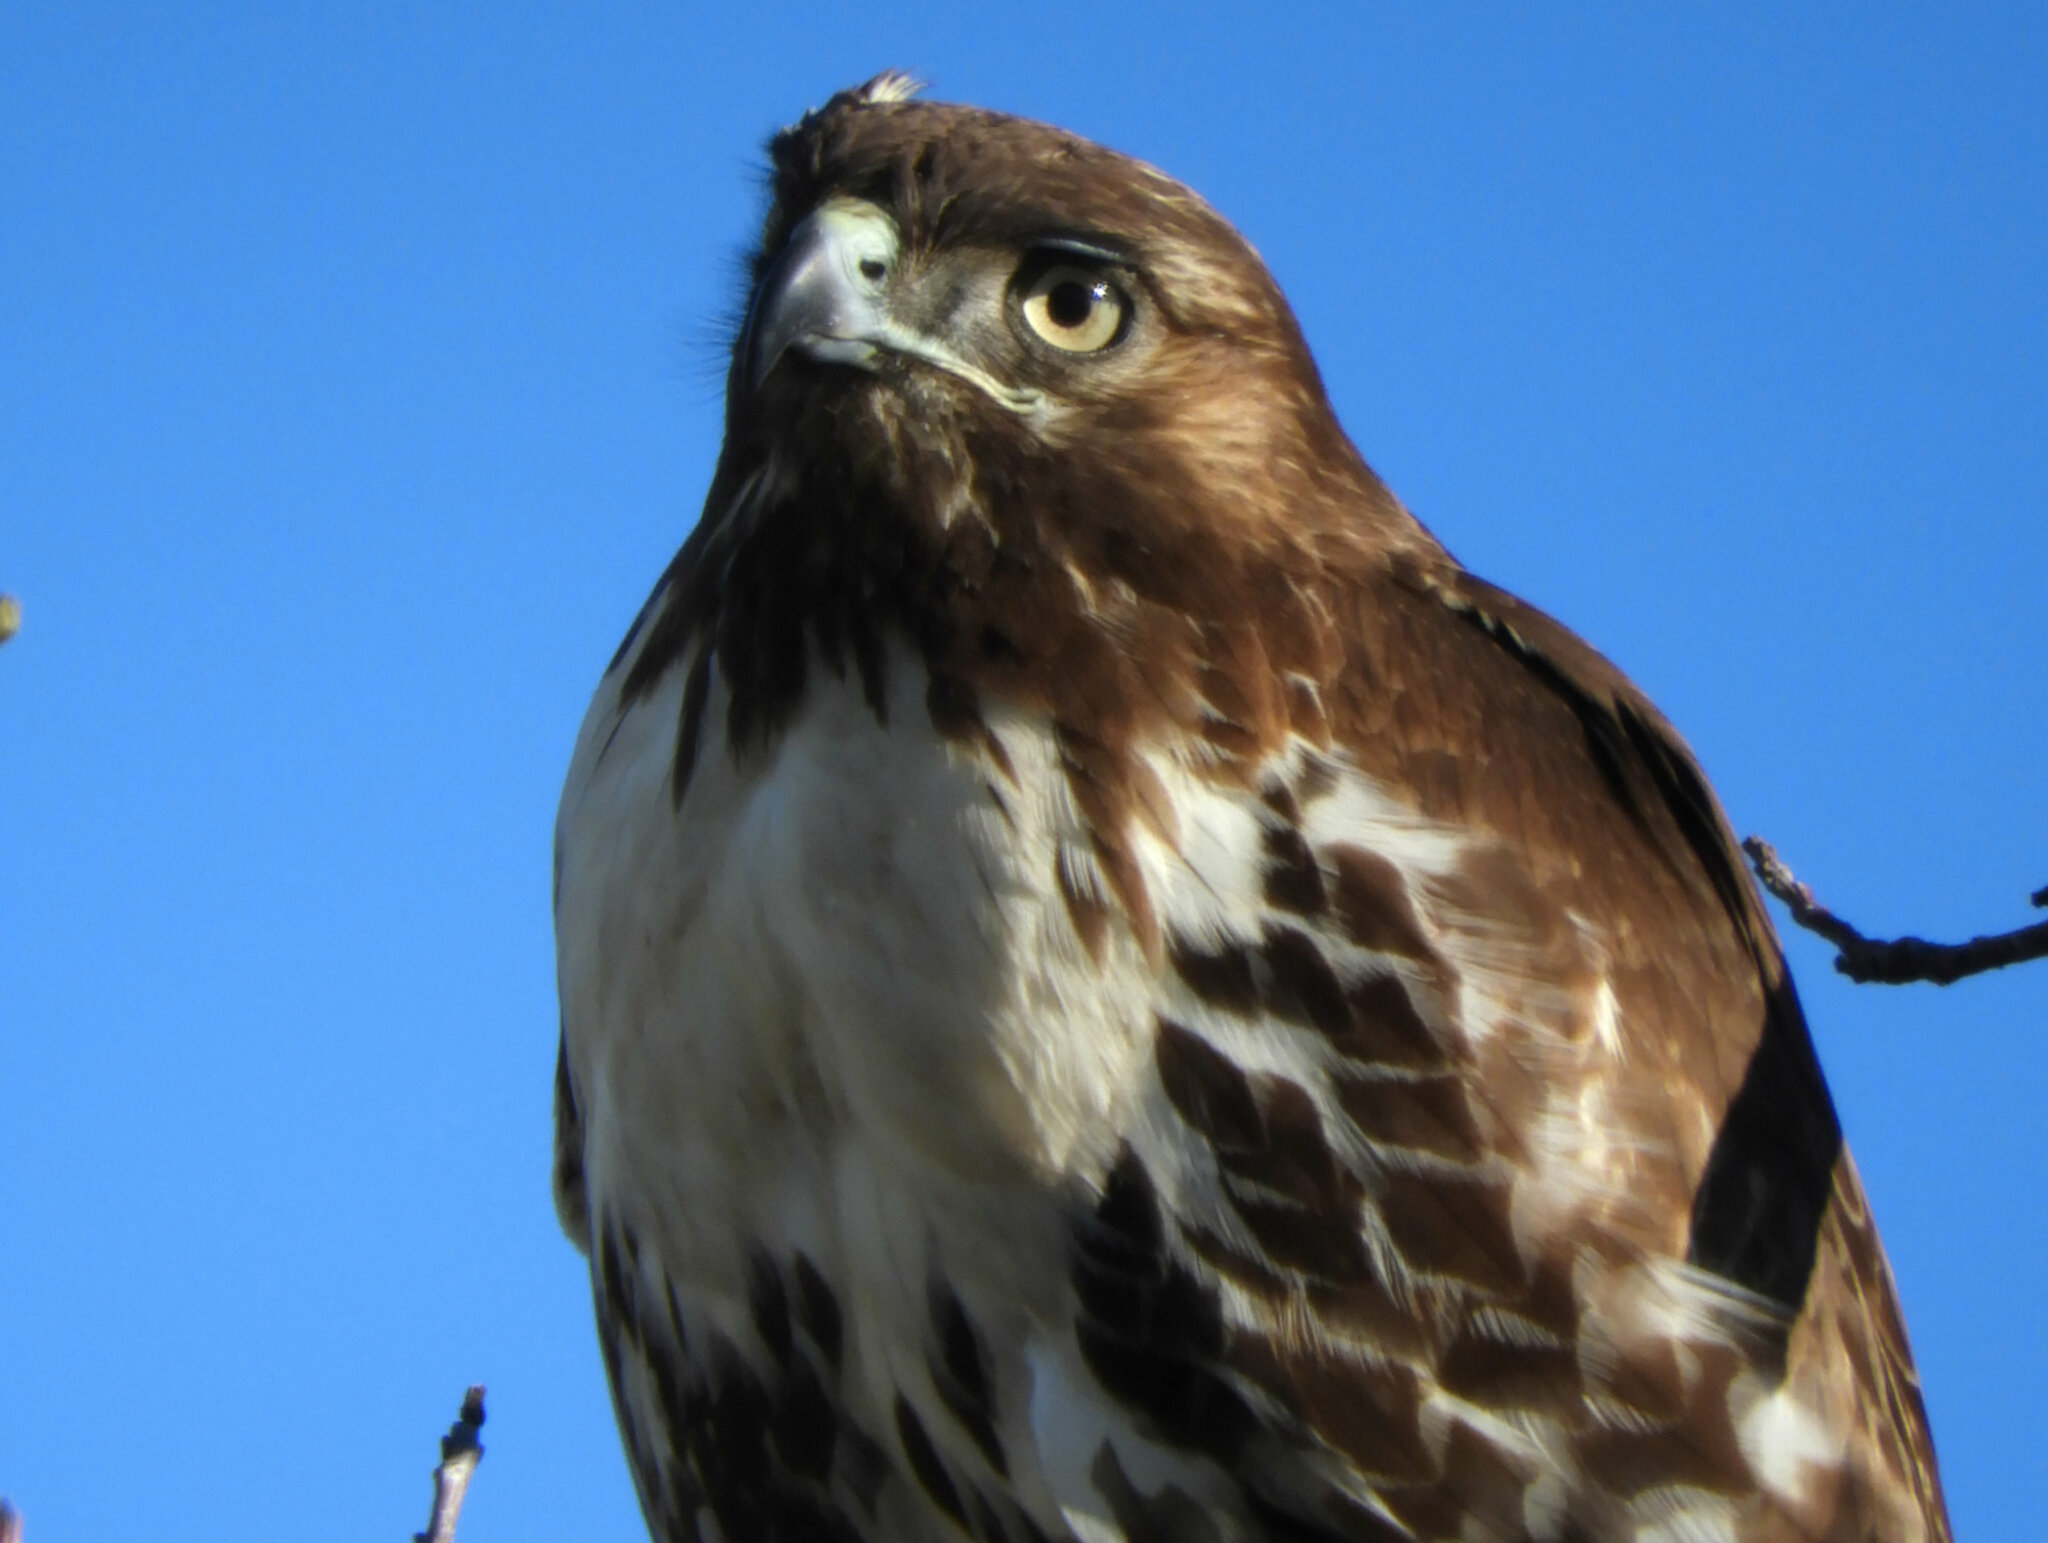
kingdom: Animalia
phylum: Chordata
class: Aves
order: Accipitriformes
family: Accipitridae
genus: Buteo
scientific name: Buteo jamaicensis
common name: Red-tailed hawk
